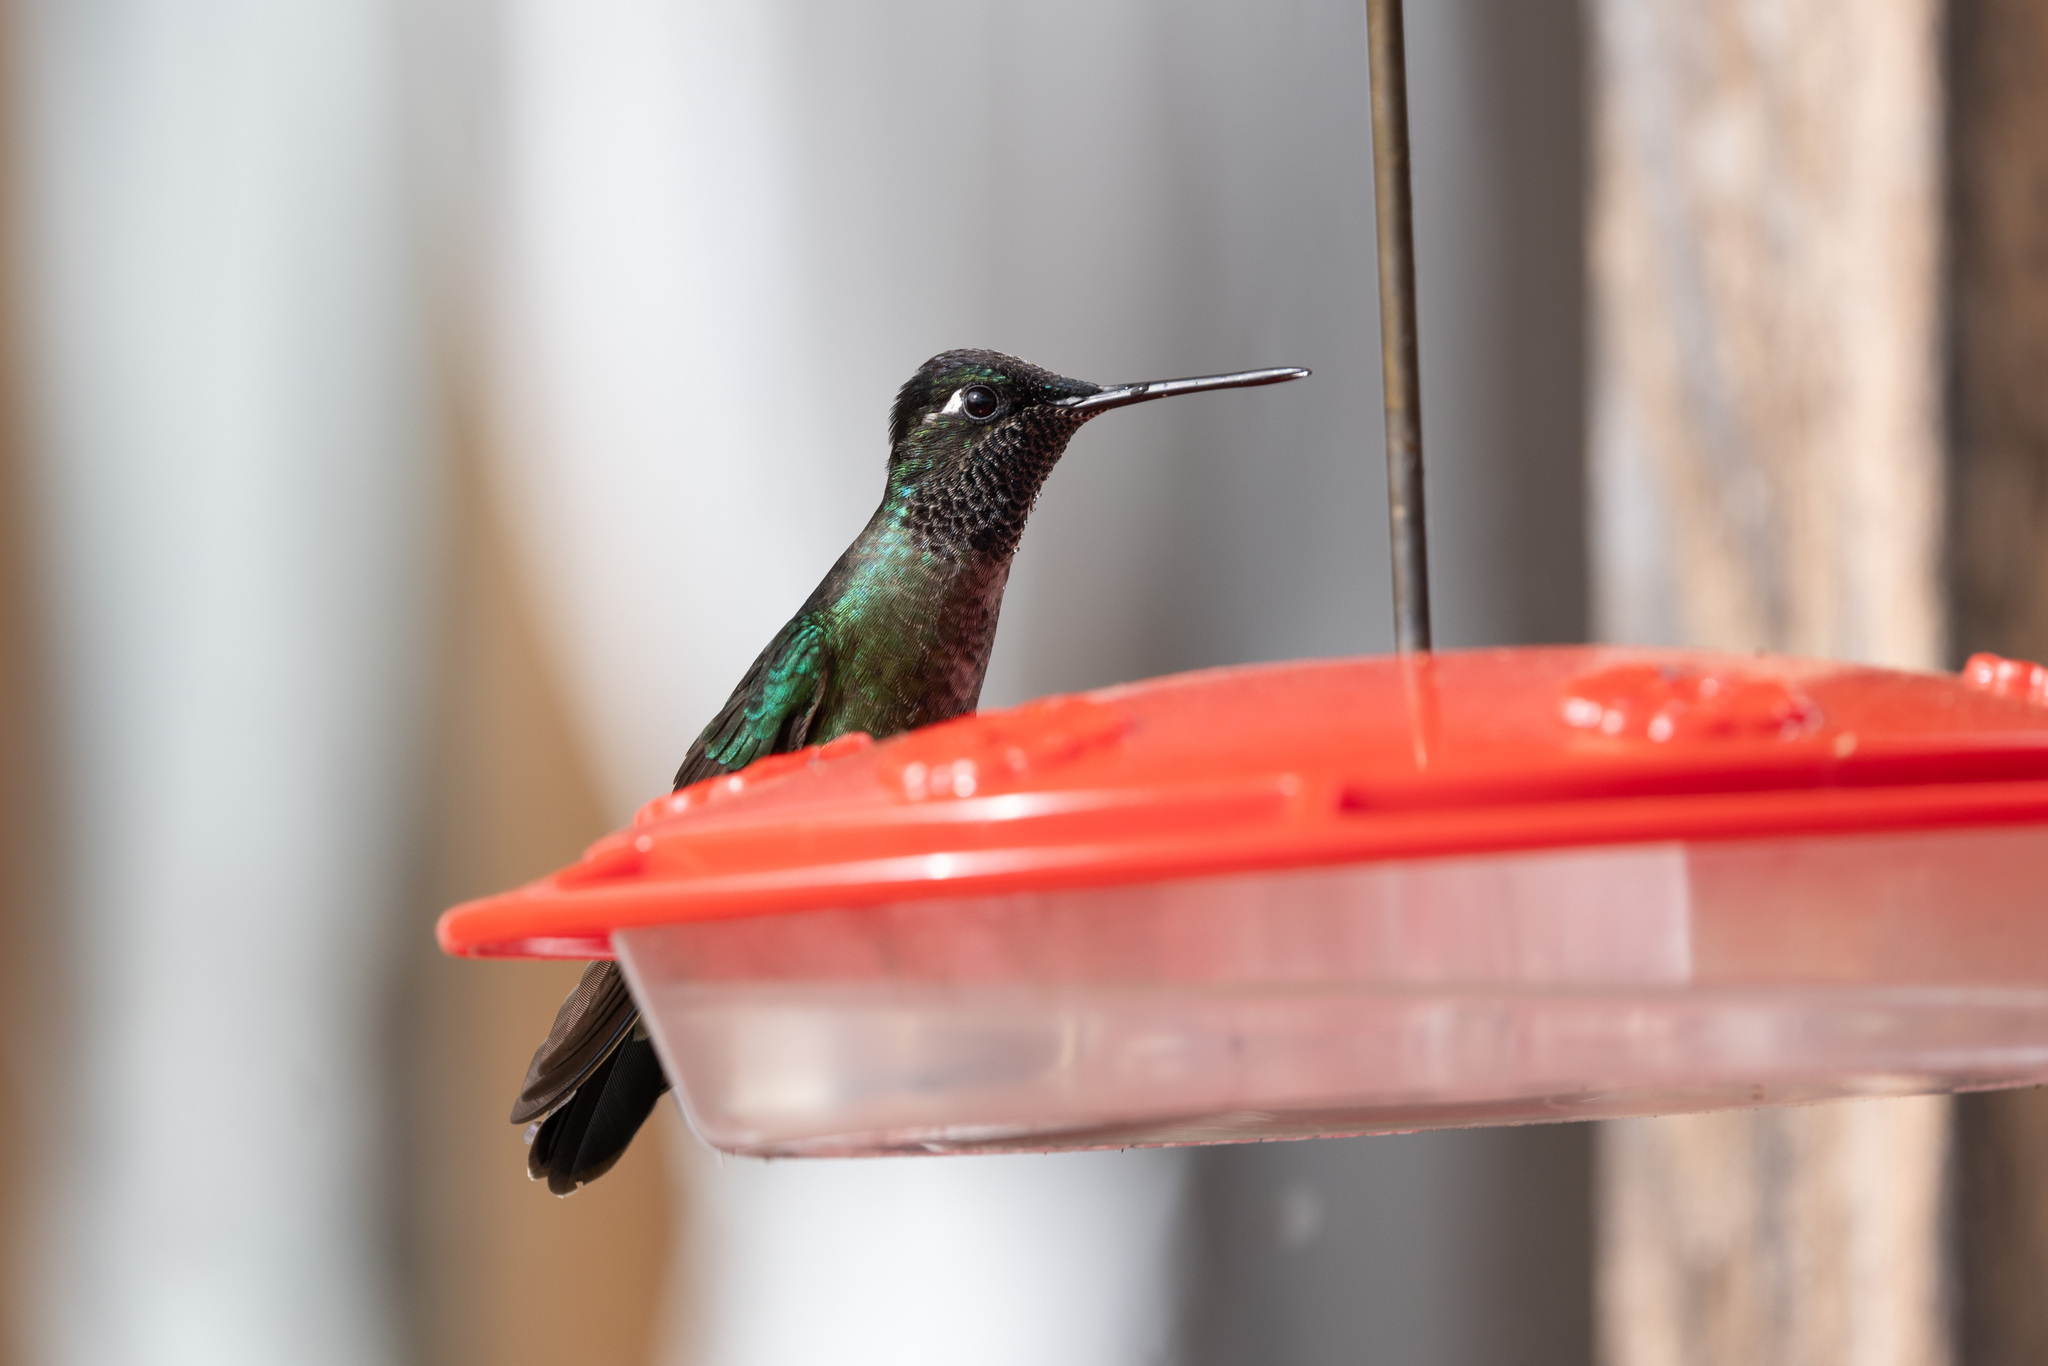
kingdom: Animalia
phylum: Chordata
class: Aves
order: Apodiformes
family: Trochilidae
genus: Eugenes
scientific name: Eugenes spectabilis
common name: Talamanca hummingbird
